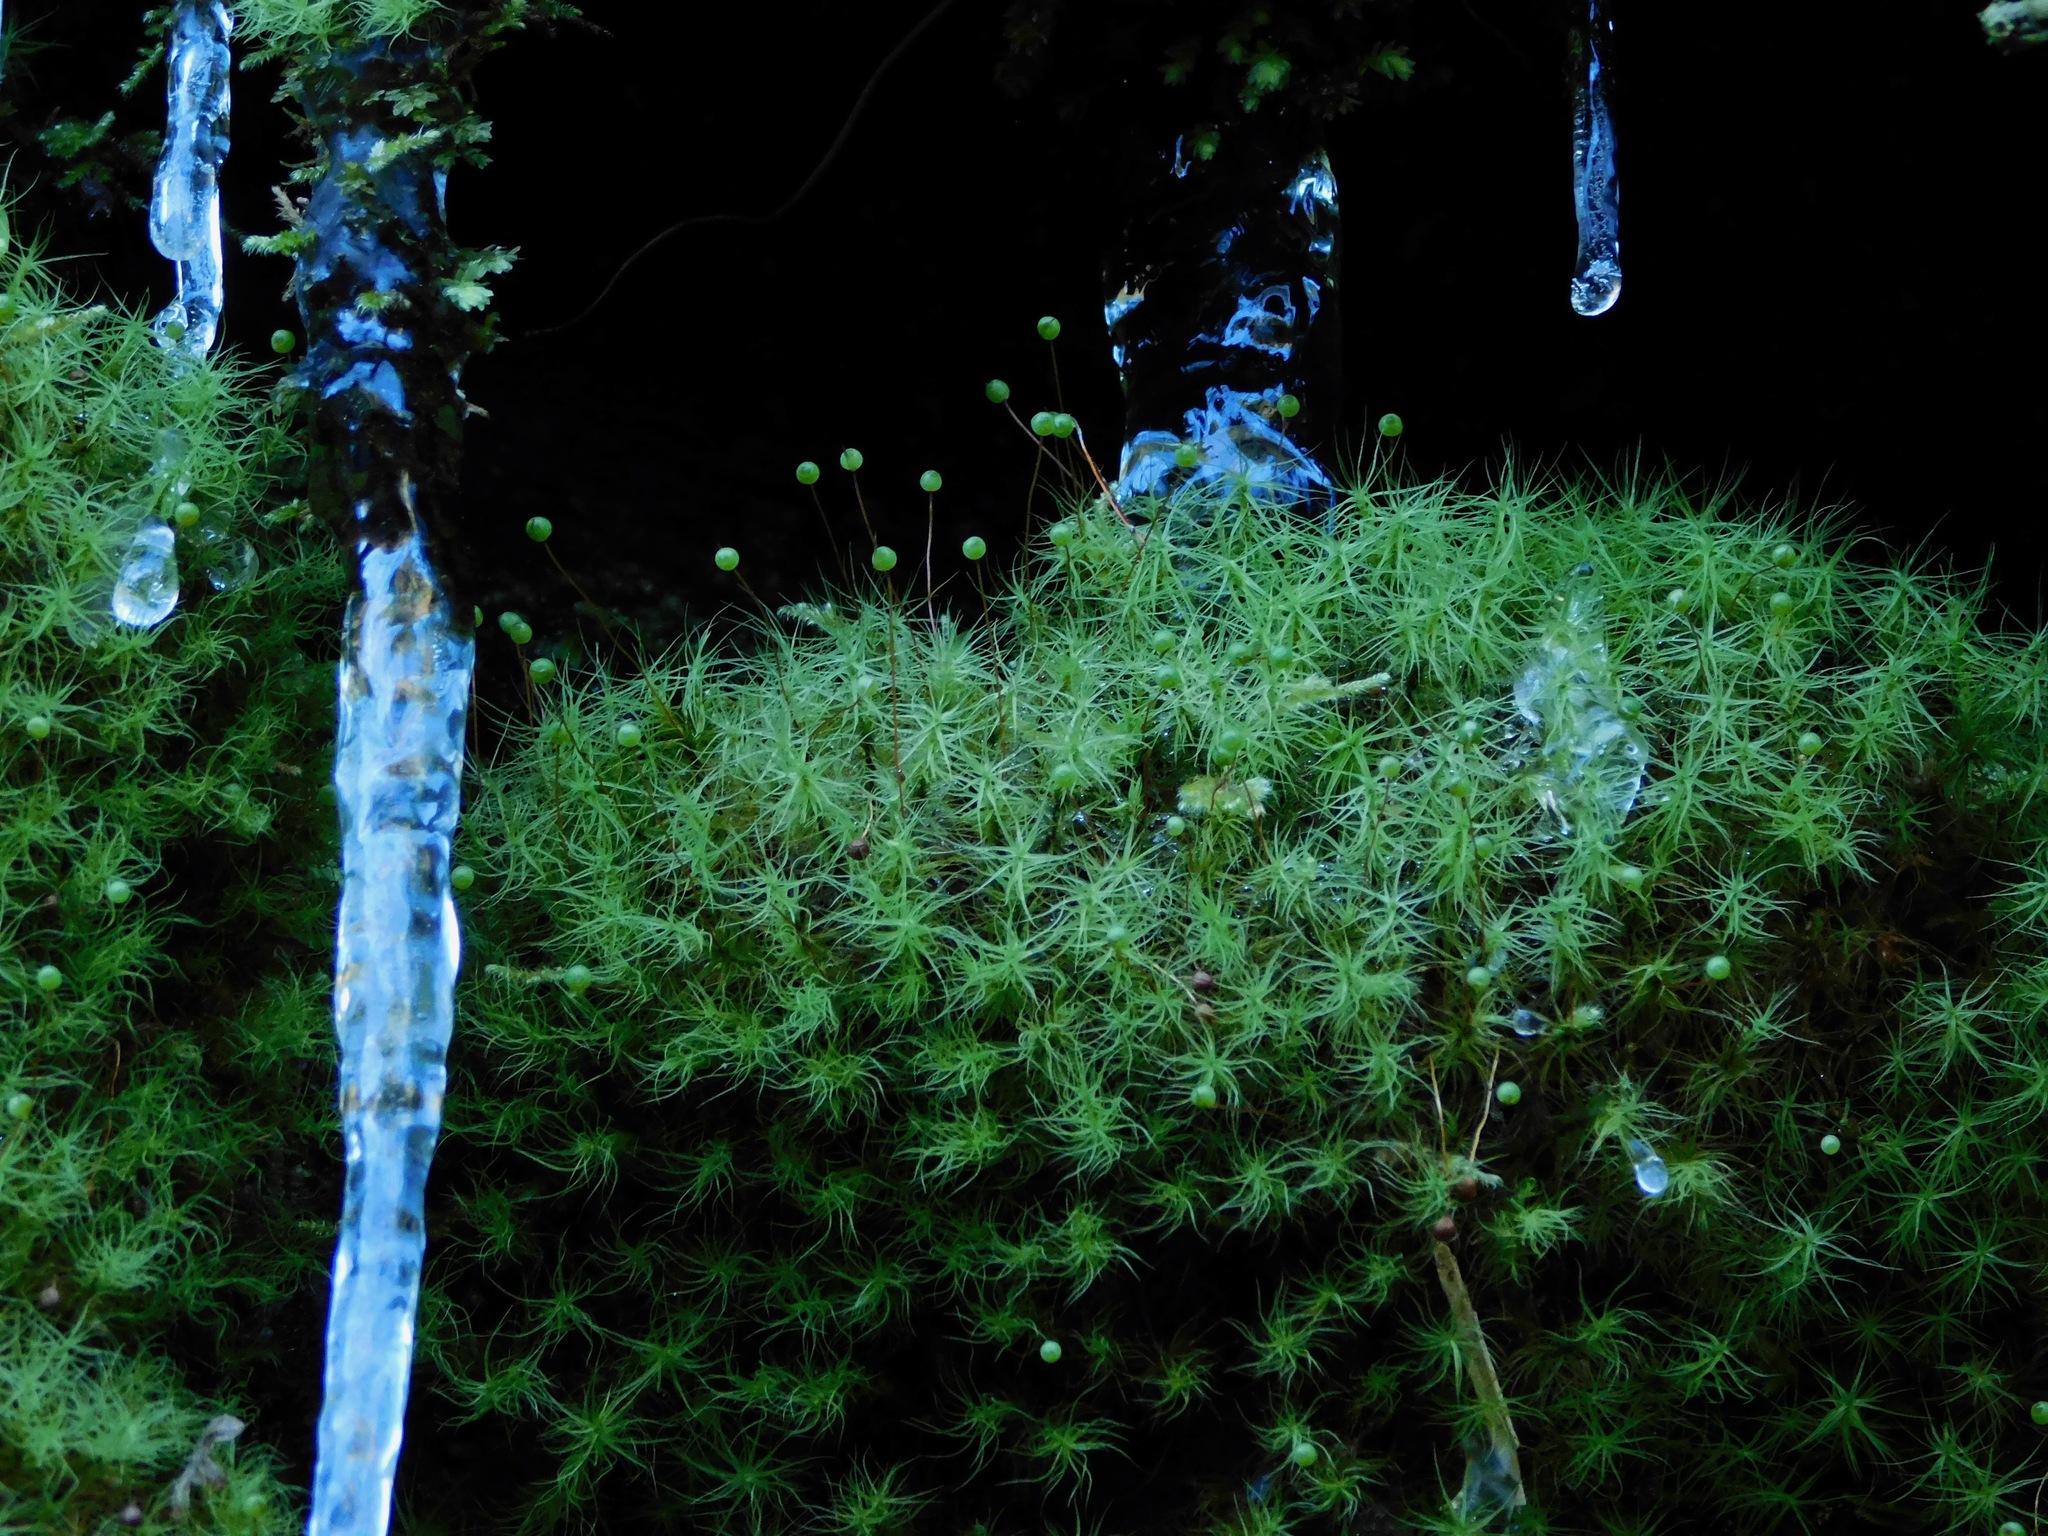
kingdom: Plantae
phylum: Bryophyta
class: Bryopsida
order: Bartramiales
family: Bartramiaceae
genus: Bartramia
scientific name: Bartramia ithyphylla
